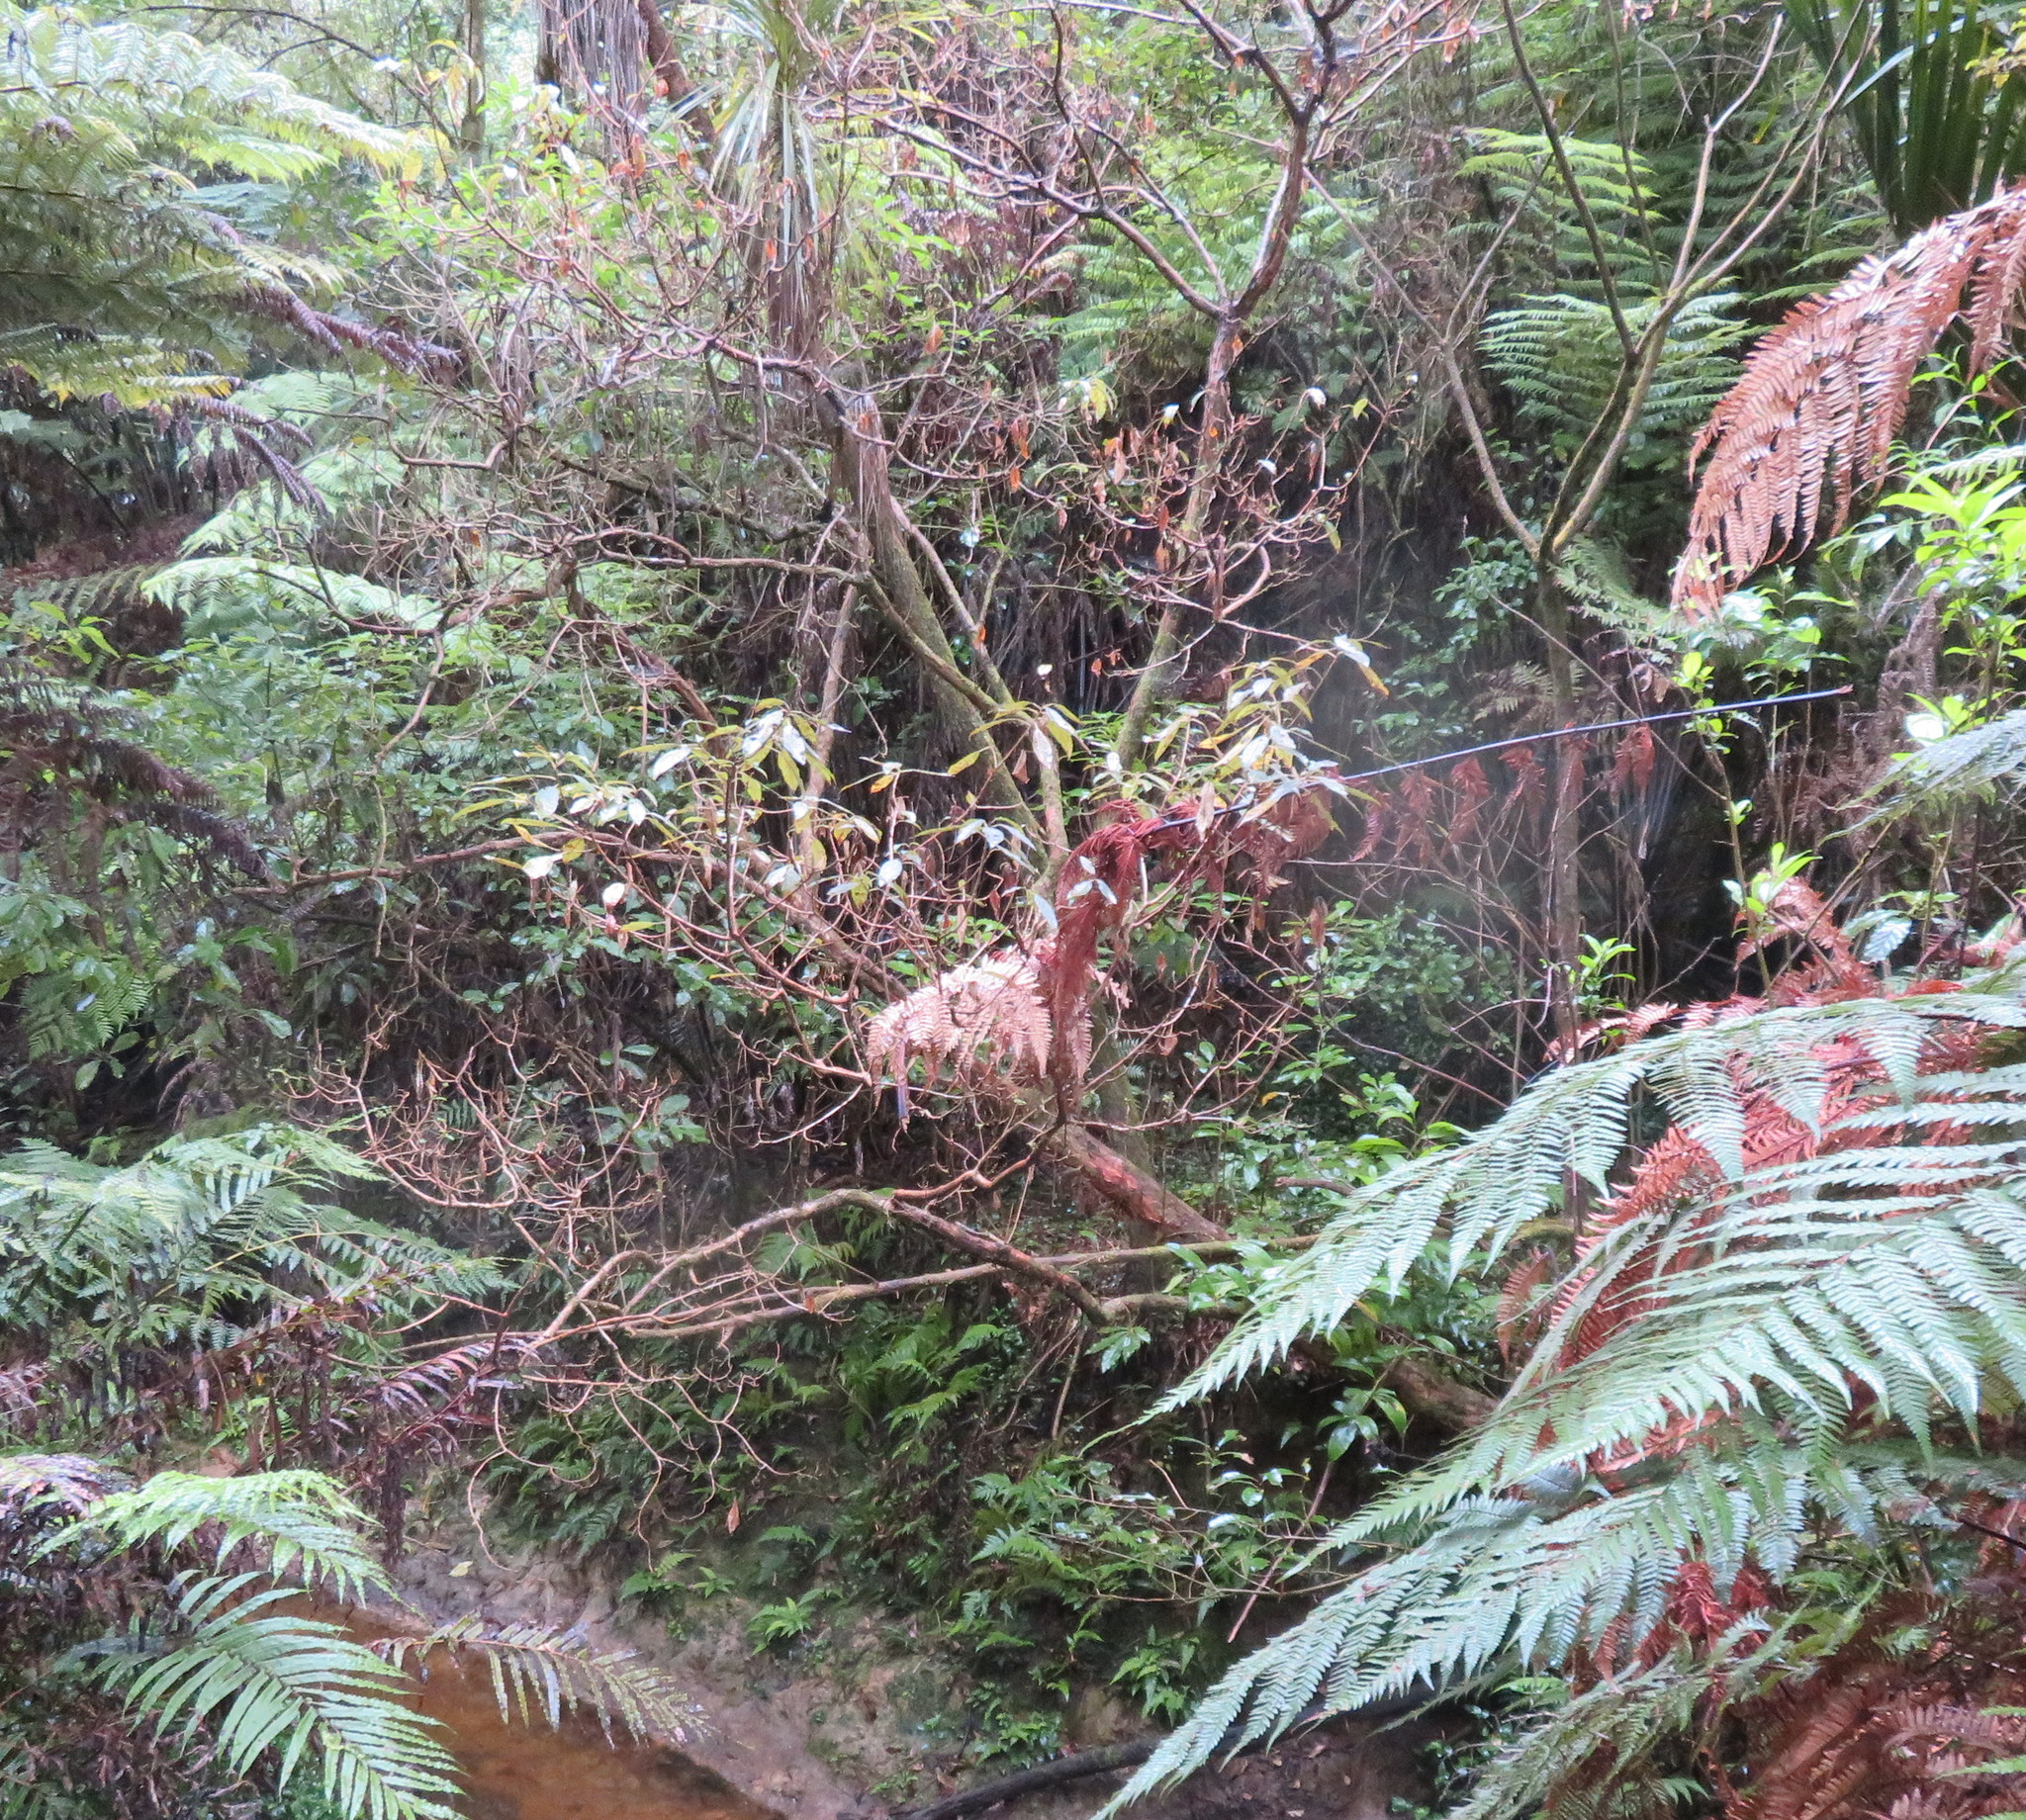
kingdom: Plantae
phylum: Tracheophyta
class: Magnoliopsida
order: Myrtales
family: Onagraceae
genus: Fuchsia
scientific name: Fuchsia excorticata
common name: Tree fuchsia
